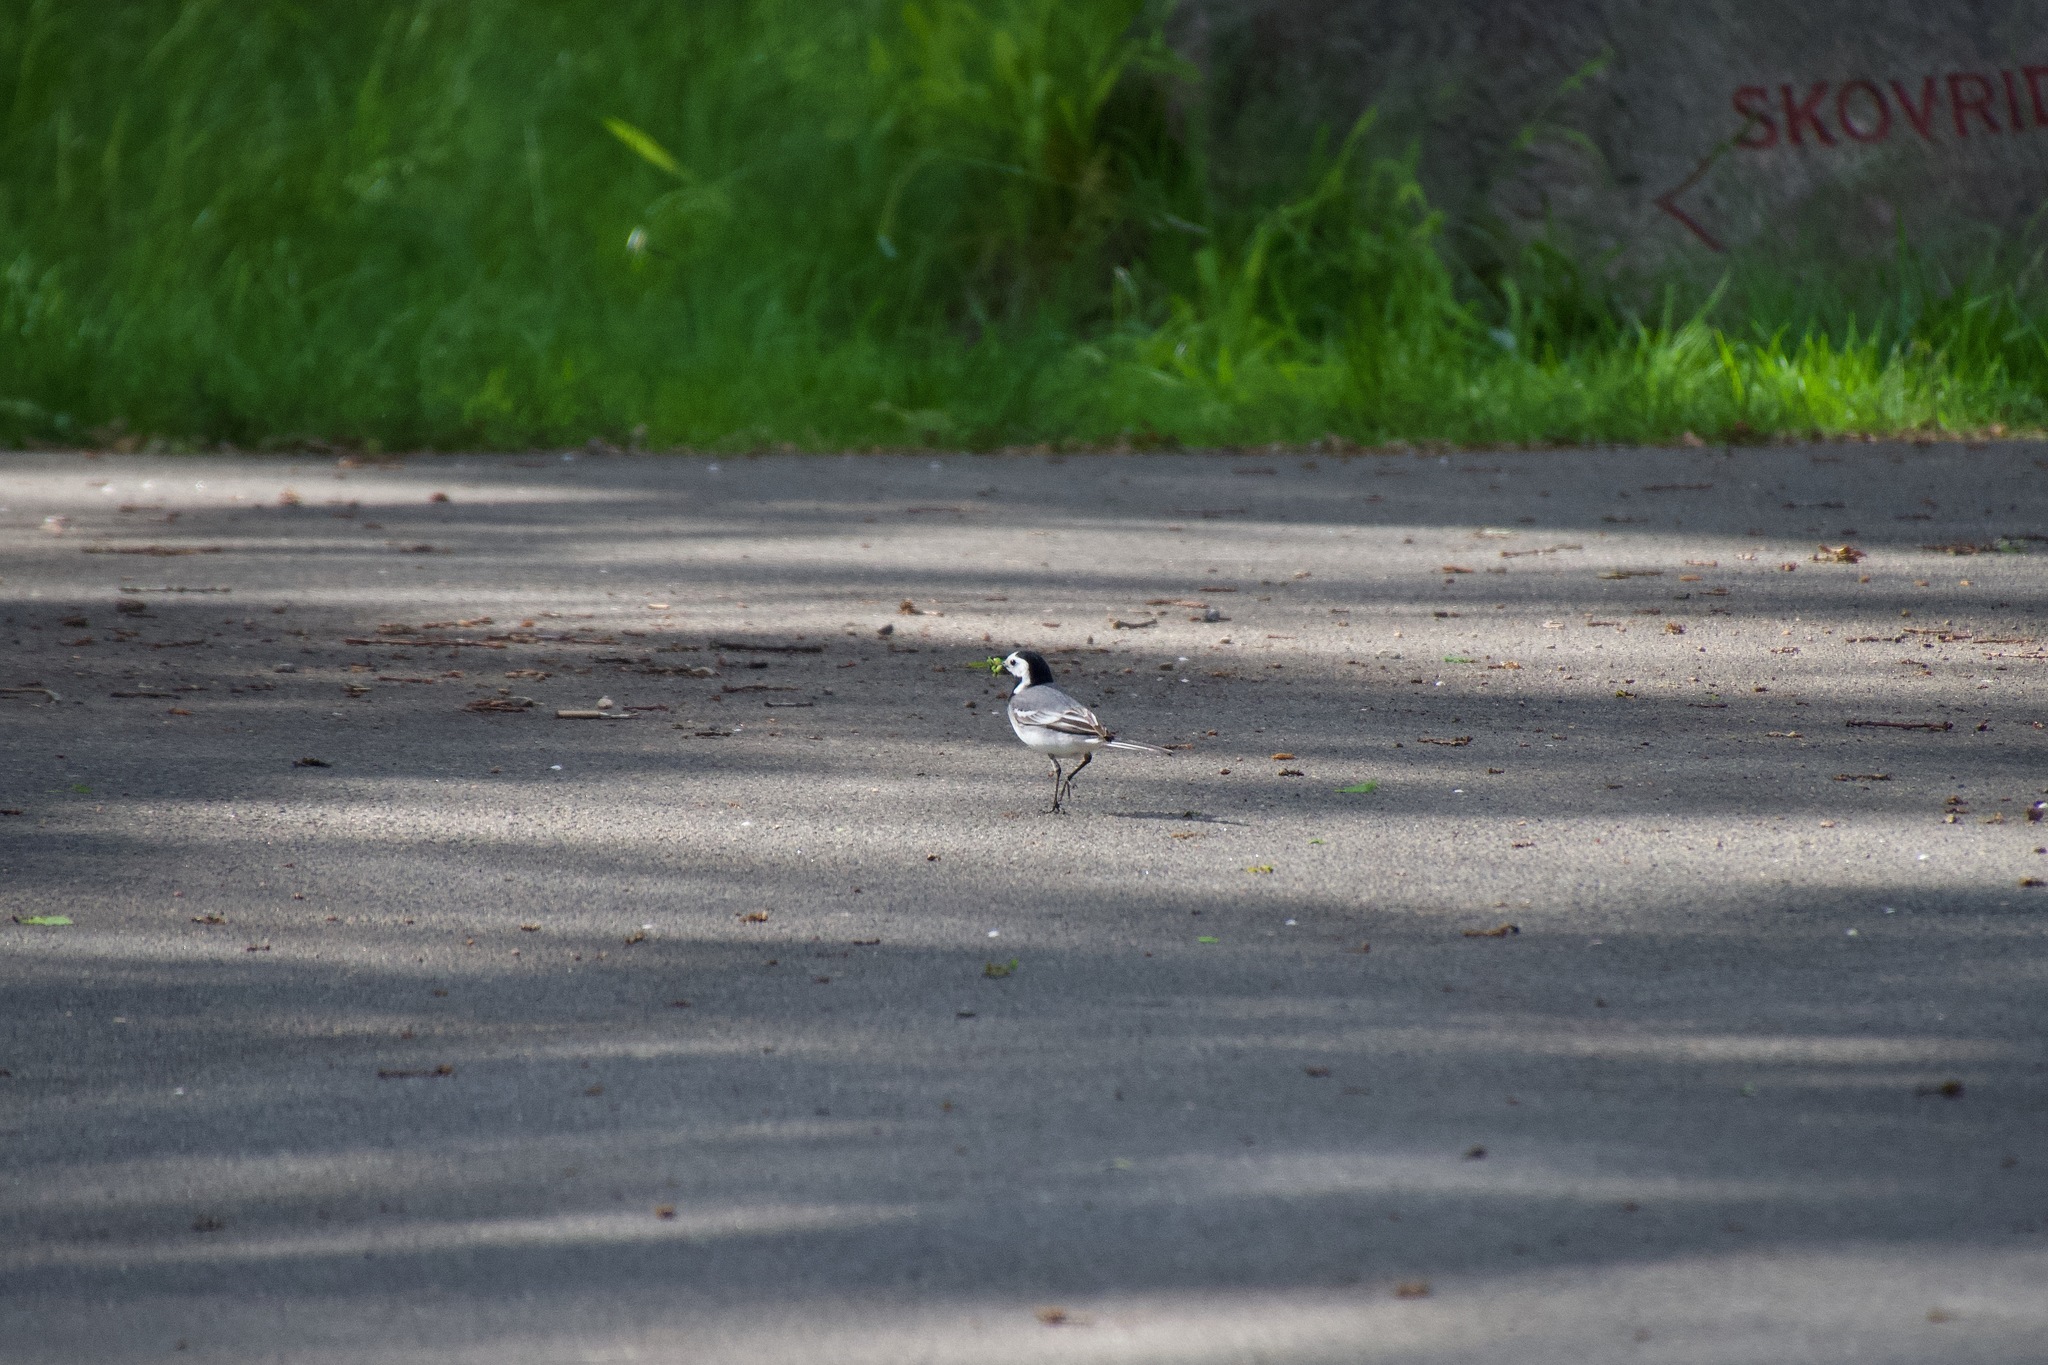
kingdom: Animalia
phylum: Chordata
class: Aves
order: Passeriformes
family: Motacillidae
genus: Motacilla
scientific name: Motacilla alba
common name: White wagtail
